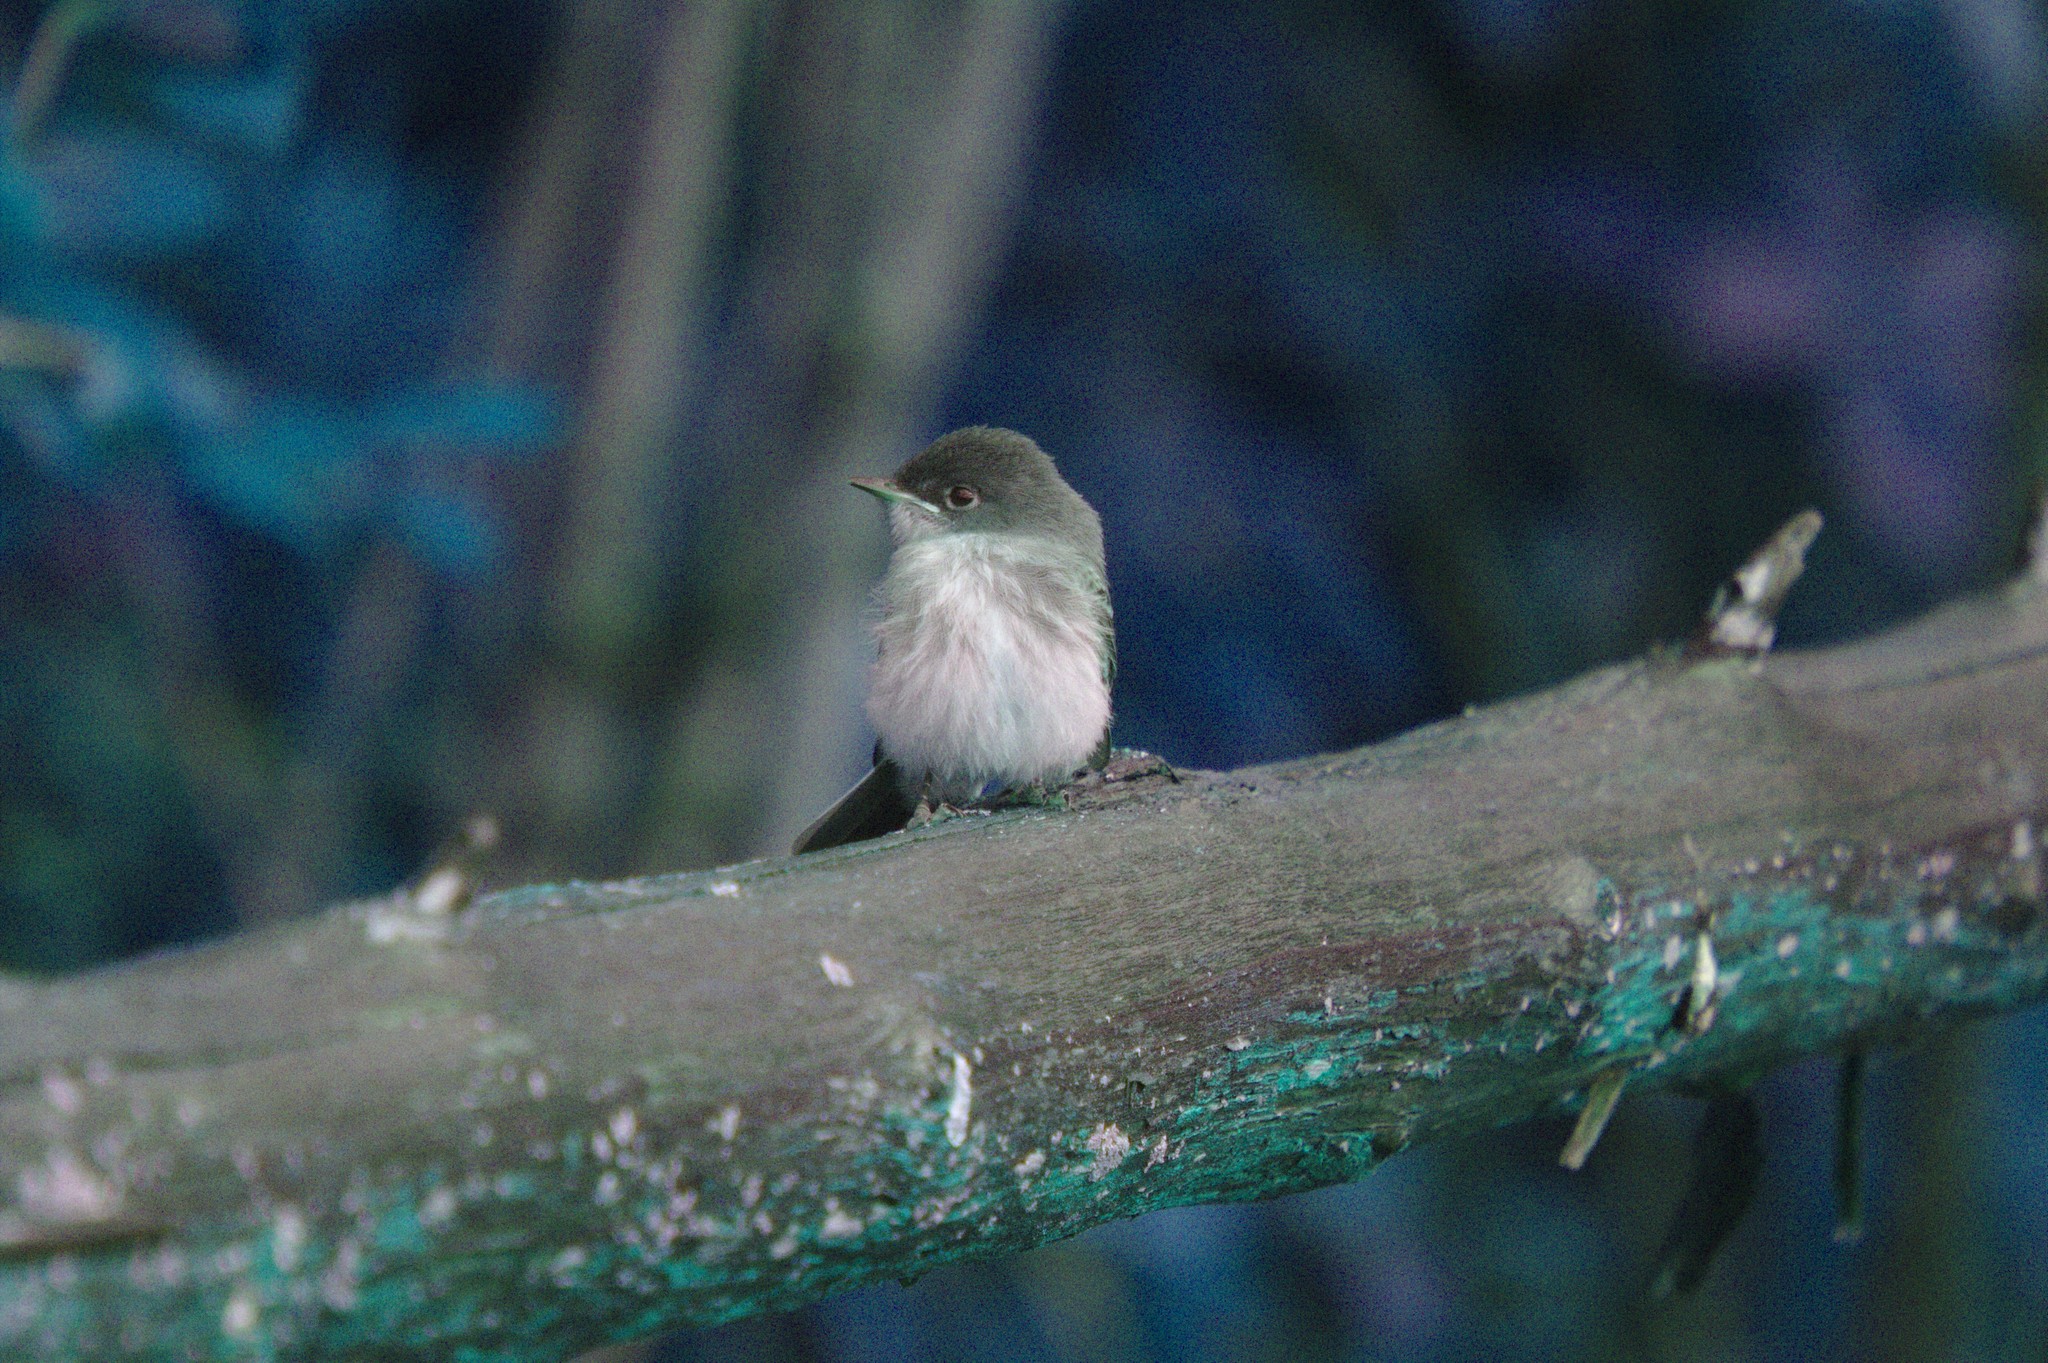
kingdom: Animalia
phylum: Chordata
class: Aves
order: Passeriformes
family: Tyrannidae
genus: Sayornis
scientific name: Sayornis phoebe
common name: Eastern phoebe
